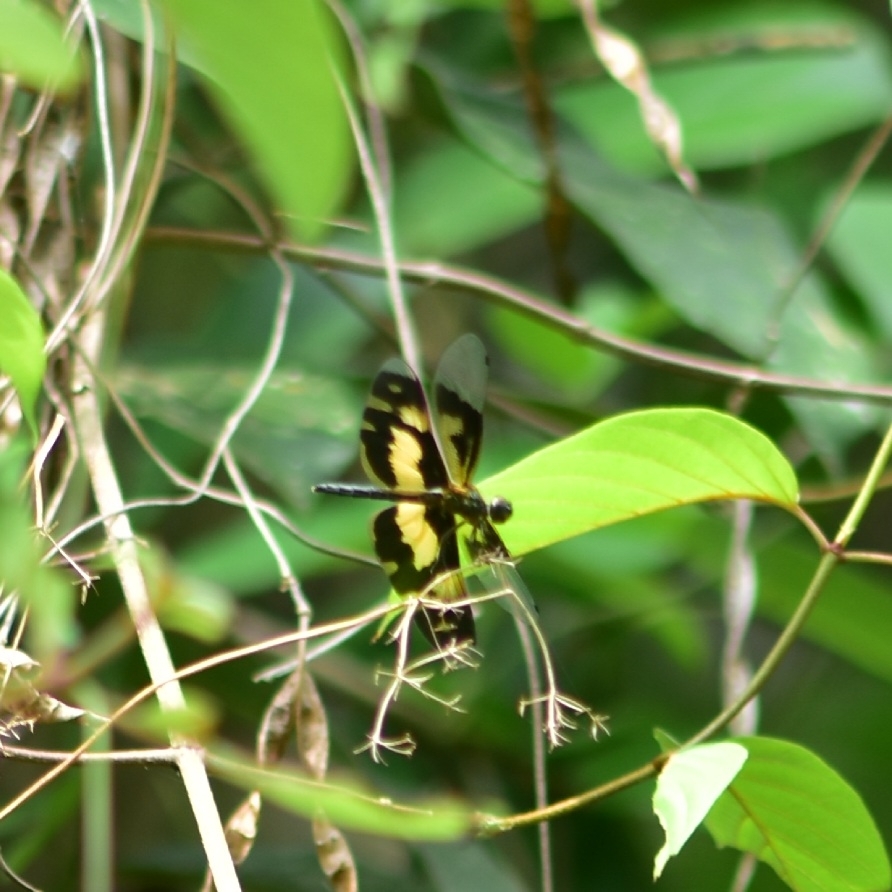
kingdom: Animalia
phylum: Arthropoda
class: Insecta
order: Odonata
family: Libellulidae
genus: Rhyothemis
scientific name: Rhyothemis variegata
